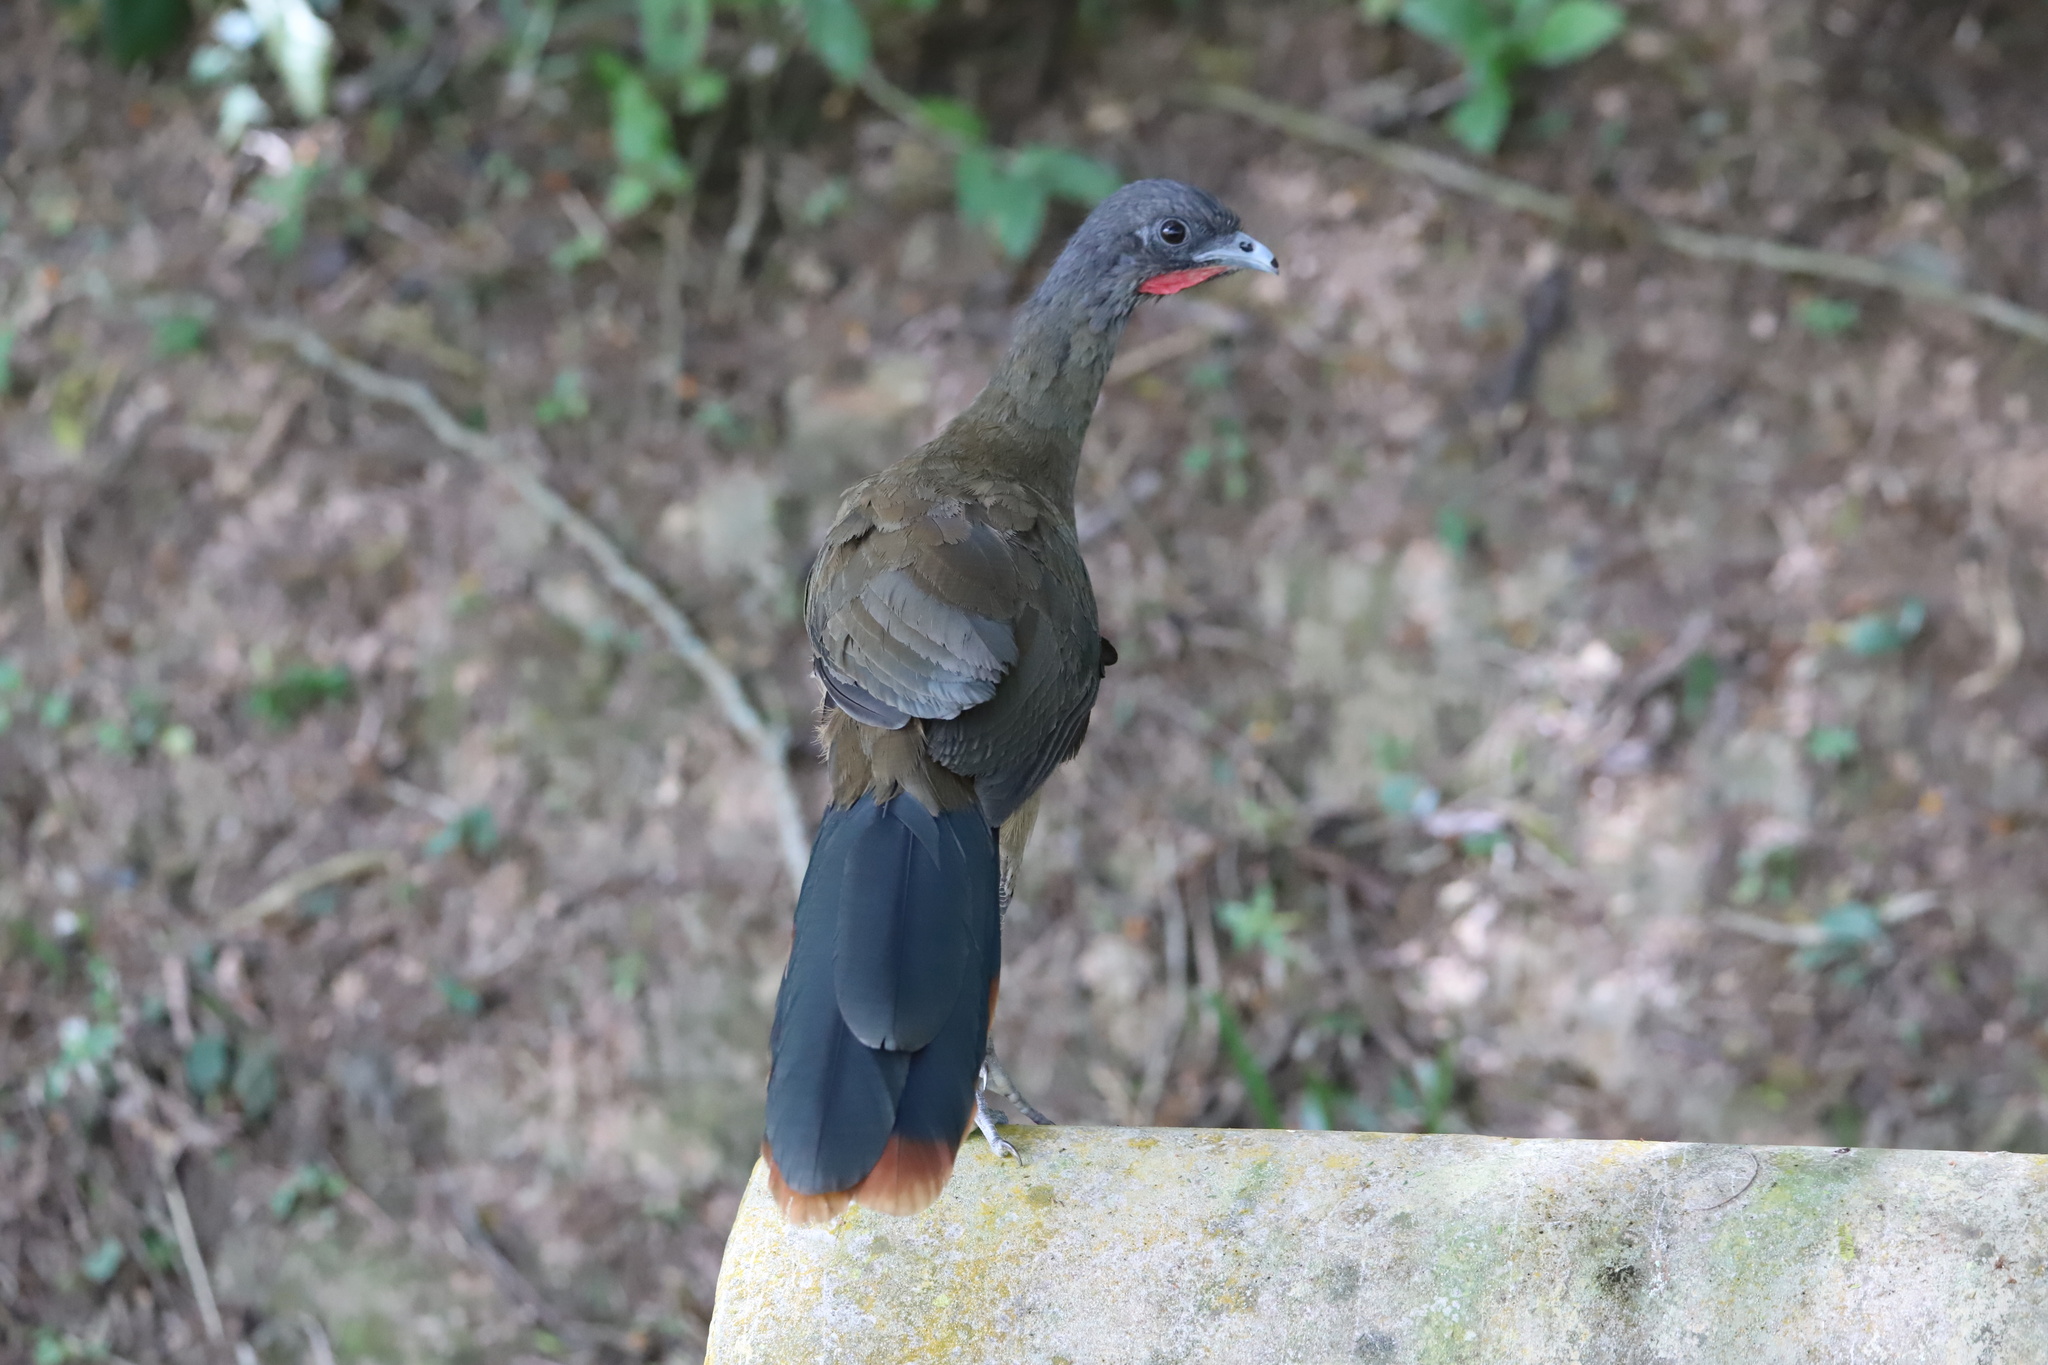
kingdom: Animalia
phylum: Chordata
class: Aves
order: Galliformes
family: Cracidae
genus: Ortalis
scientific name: Ortalis ruficauda
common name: Rufous-vented chachalaca
